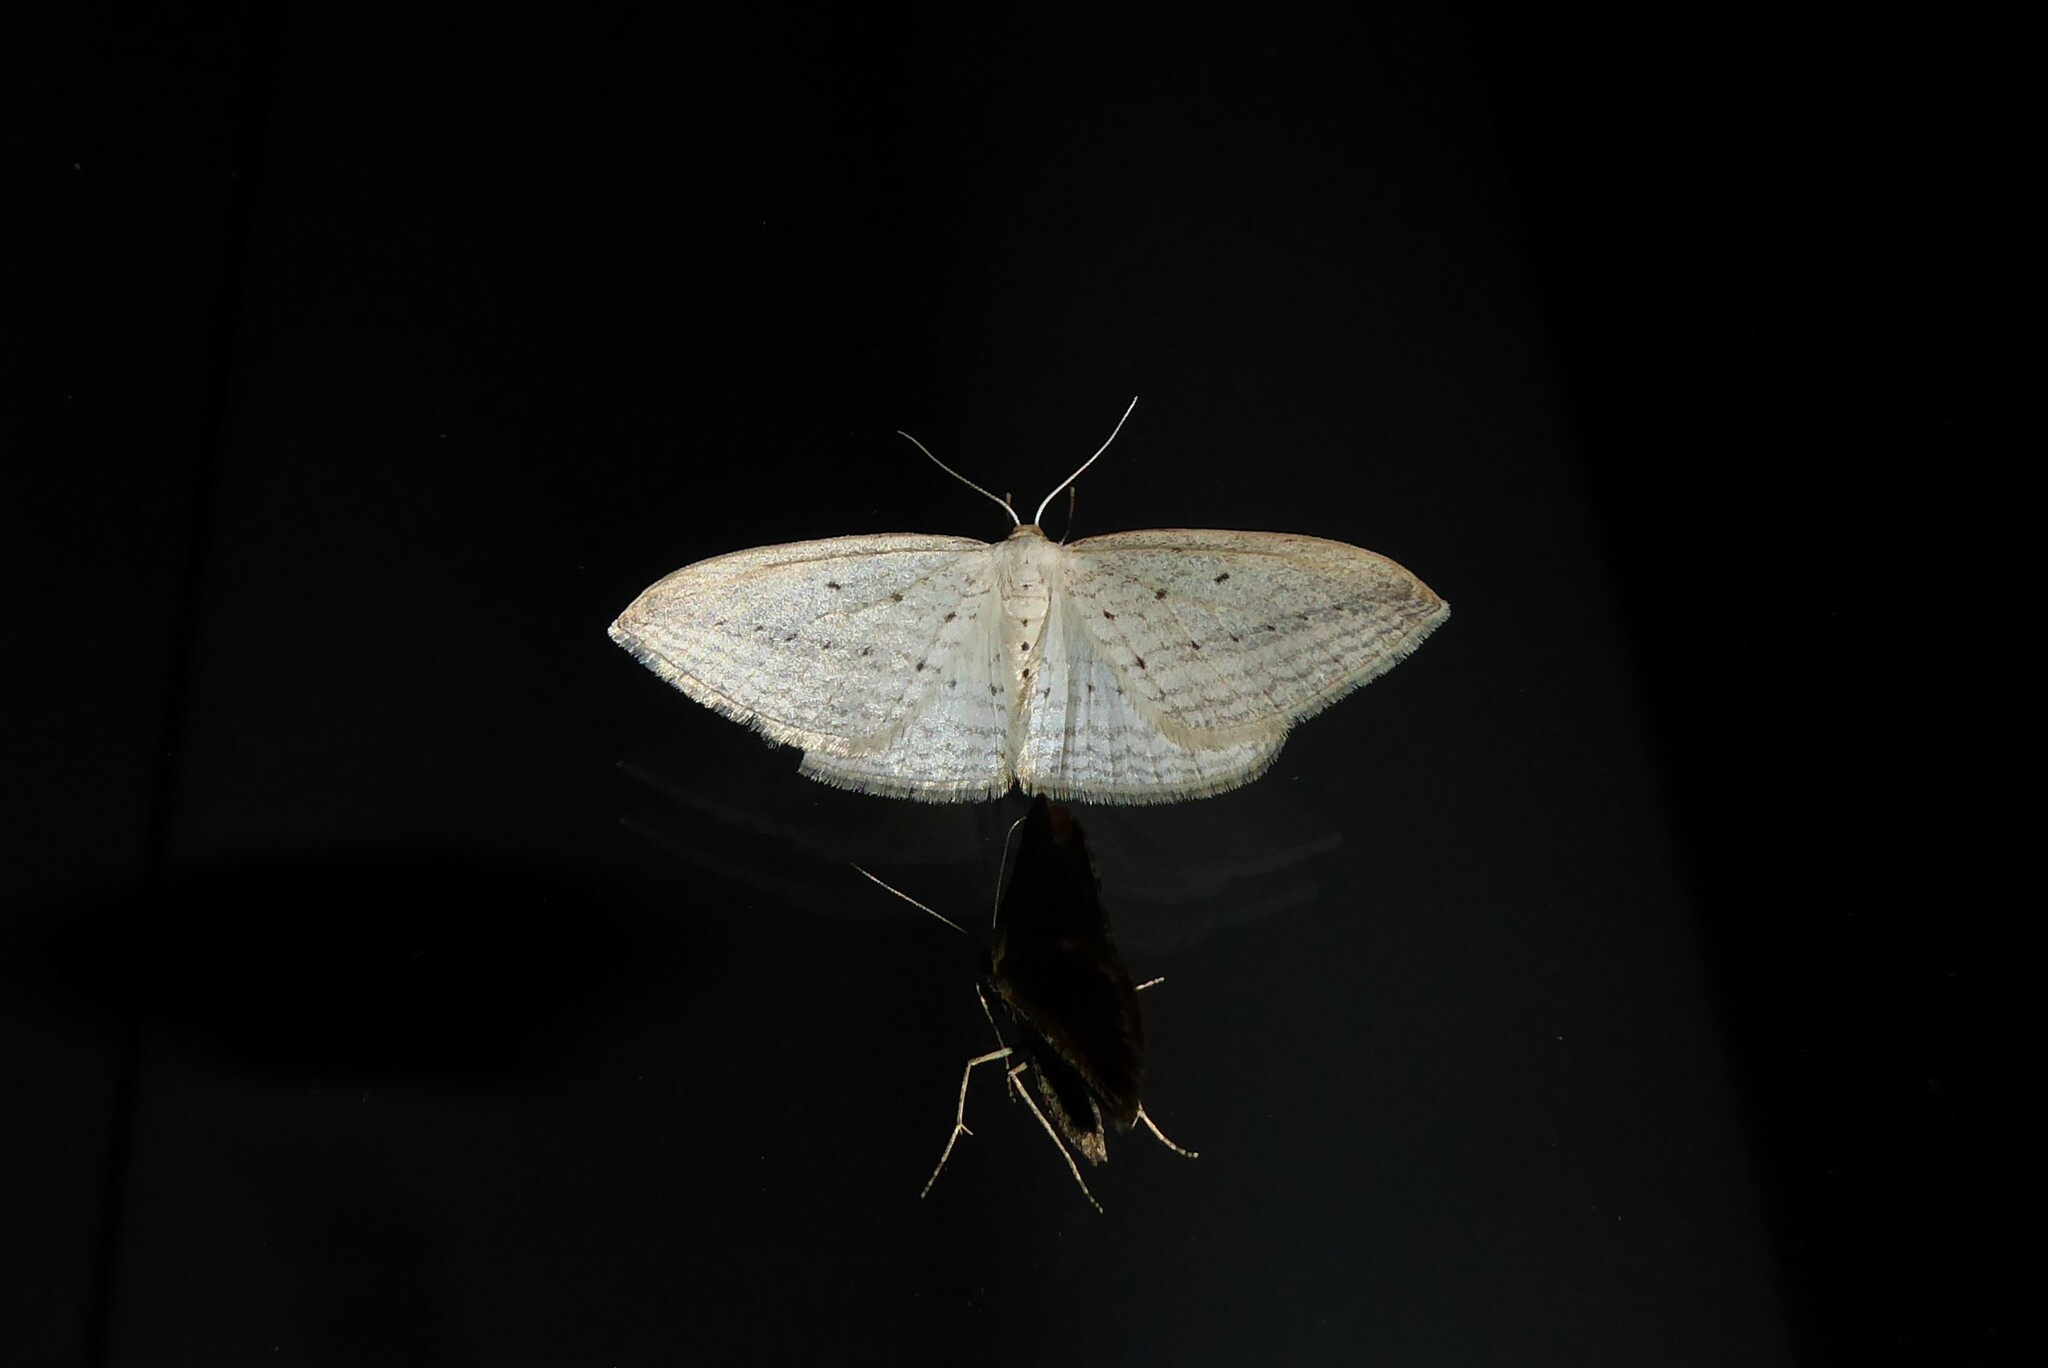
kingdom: Animalia
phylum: Arthropoda
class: Insecta
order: Lepidoptera
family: Geometridae
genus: Orthoclydon
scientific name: Orthoclydon praefectata
